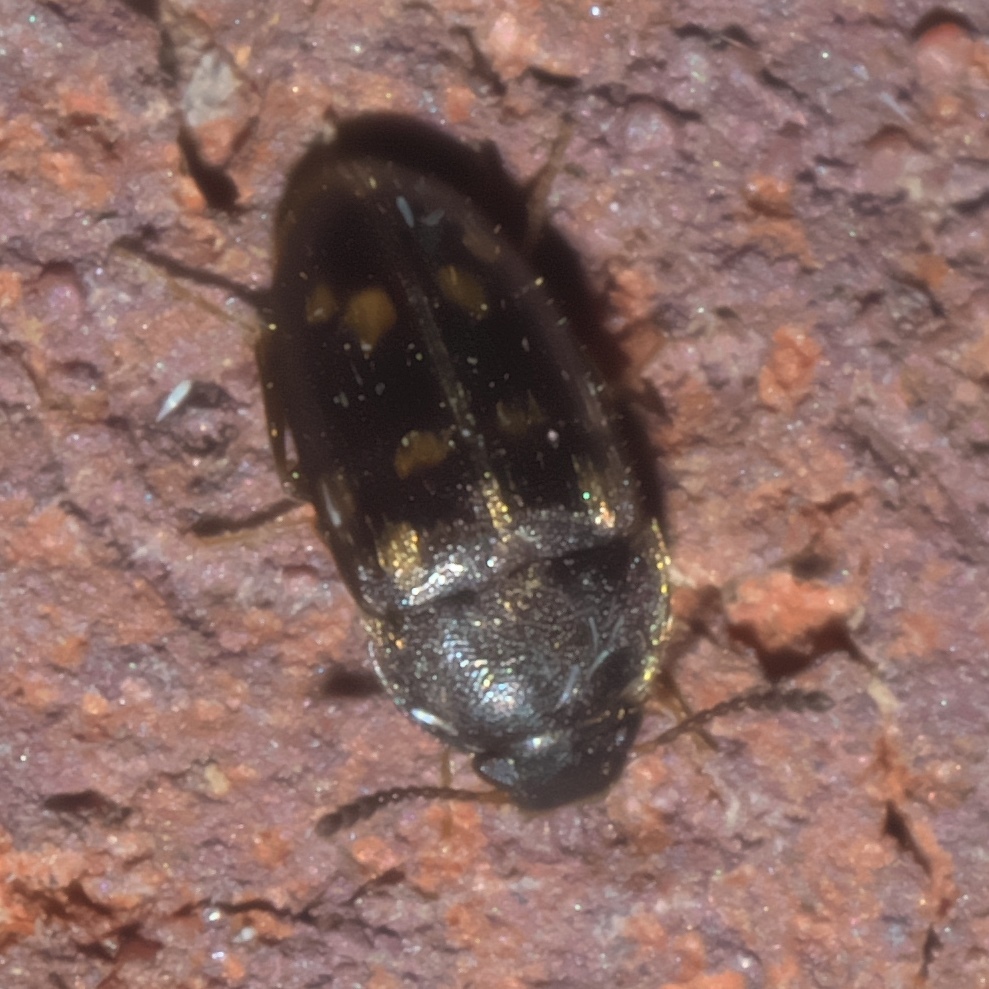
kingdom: Animalia
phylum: Arthropoda
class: Insecta
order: Coleoptera
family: Mycetophagidae
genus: Litargus
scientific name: Litargus sexpunctatus
